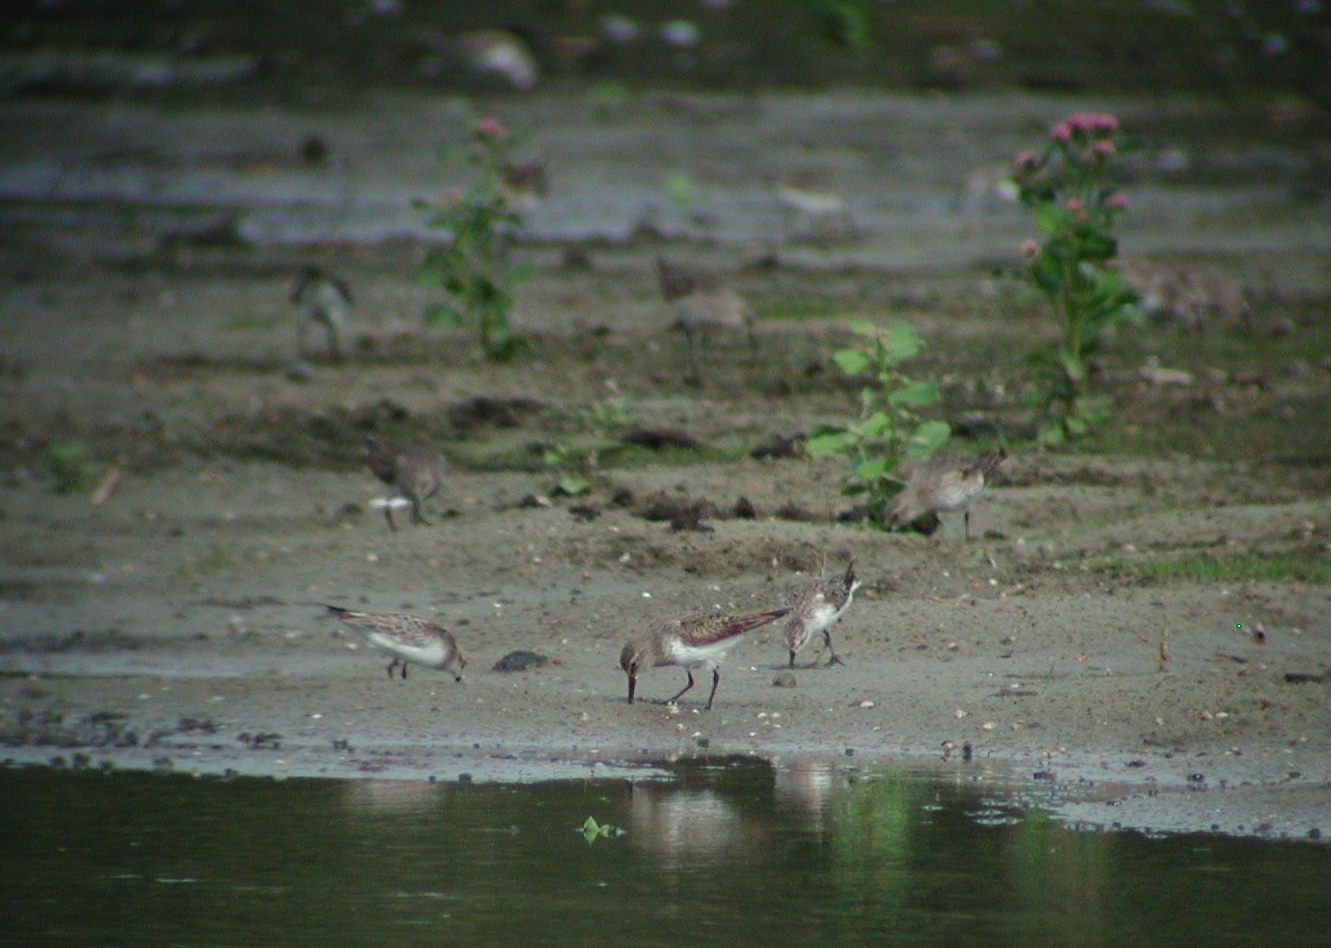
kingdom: Animalia
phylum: Chordata
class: Aves
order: Charadriiformes
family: Scolopacidae
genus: Calidris
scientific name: Calidris fuscicollis
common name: White-rumped sandpiper
